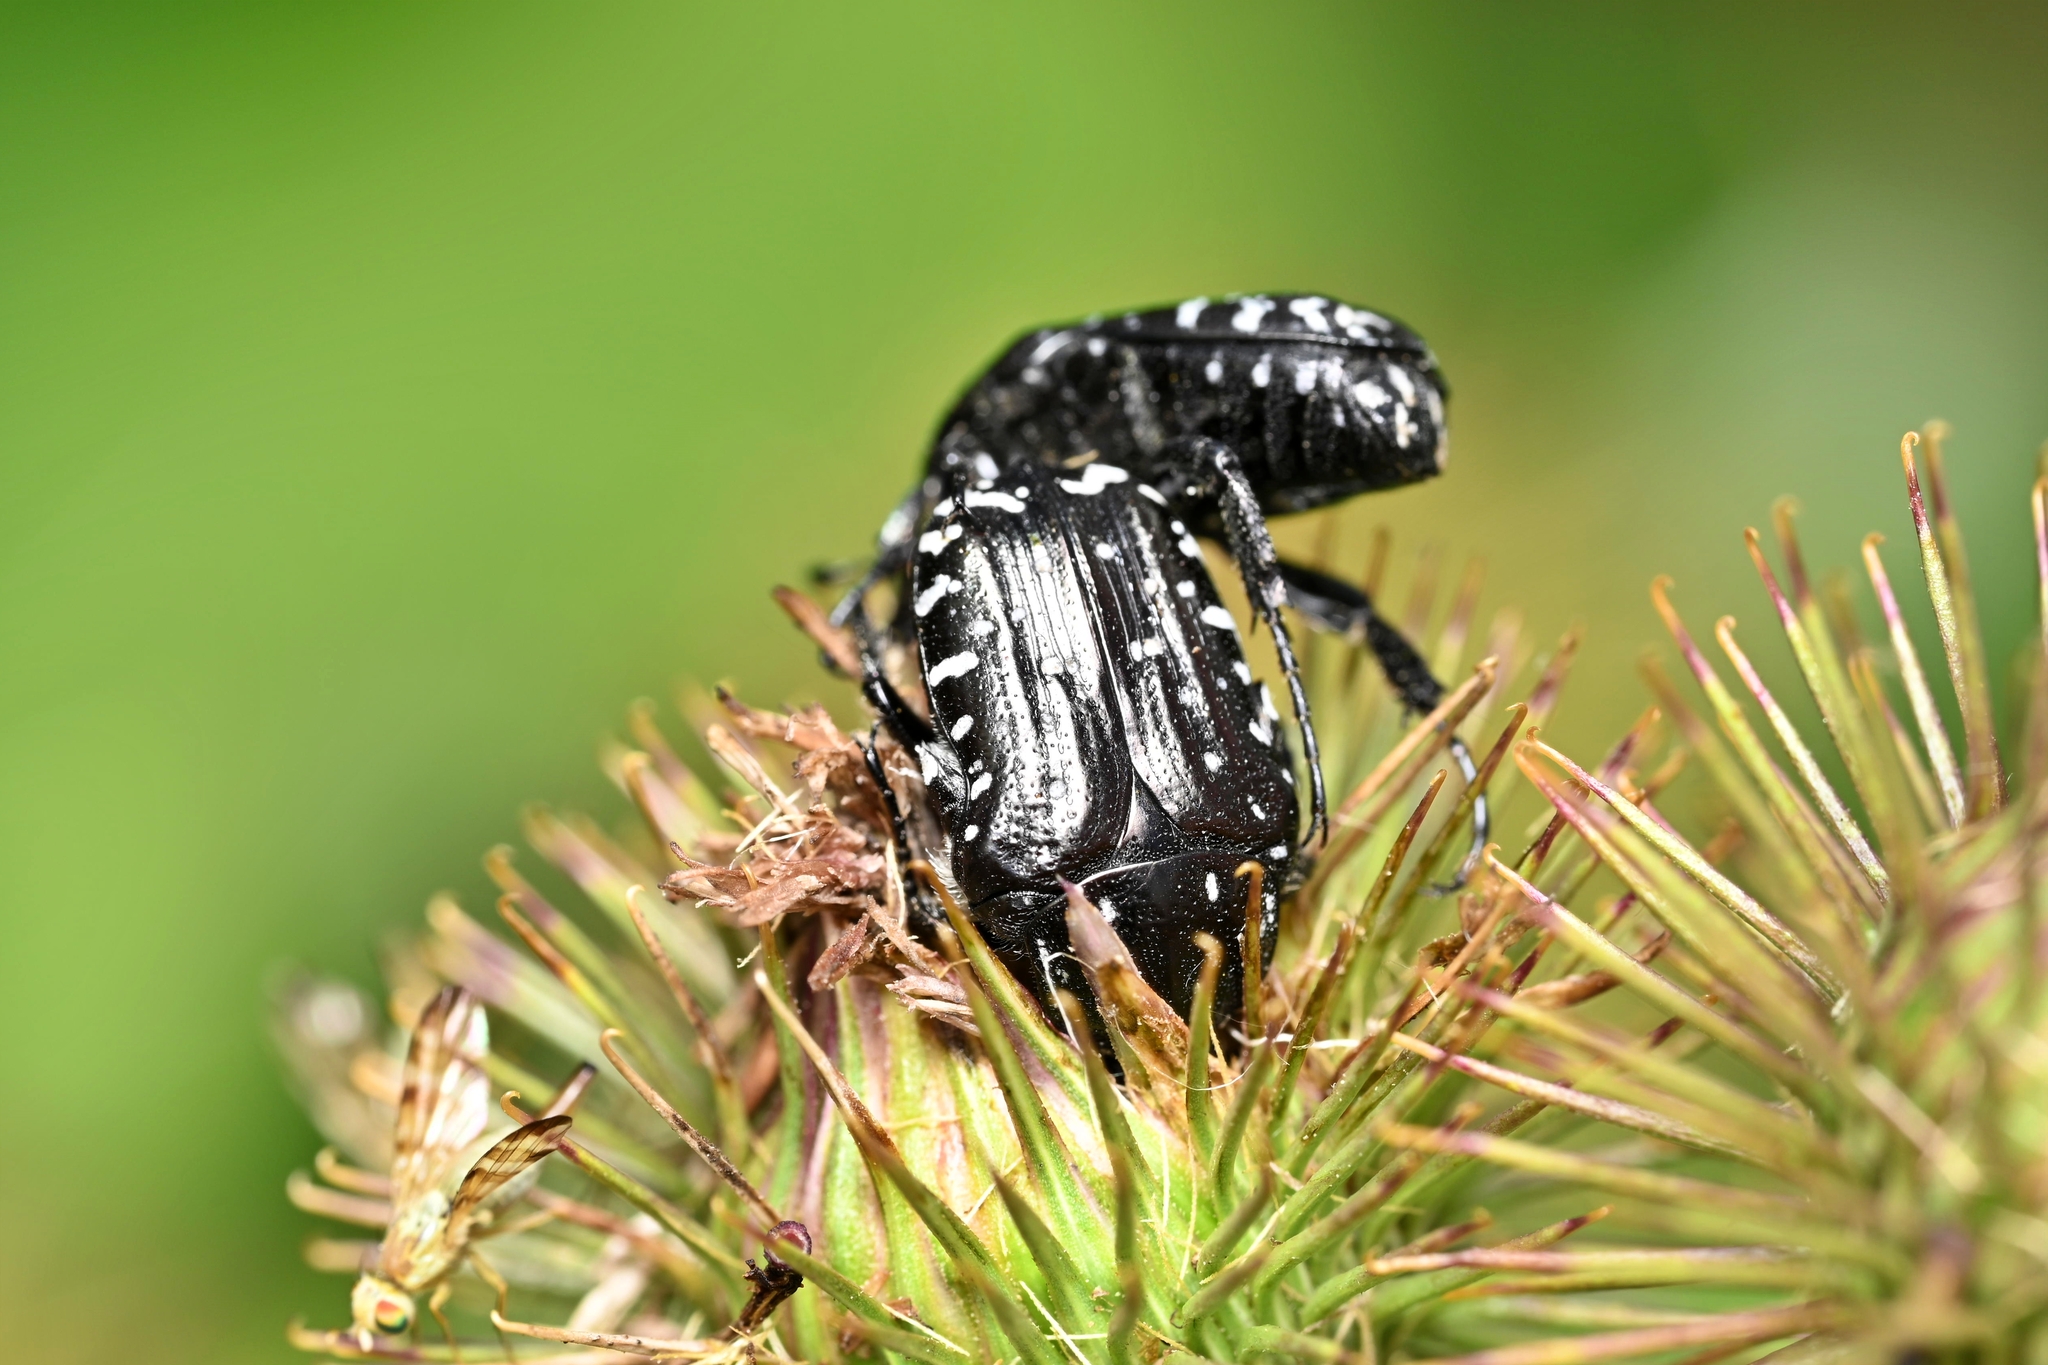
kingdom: Animalia
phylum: Arthropoda
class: Insecta
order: Coleoptera
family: Scarabaeidae
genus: Oxythyrea
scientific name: Oxythyrea funesta
